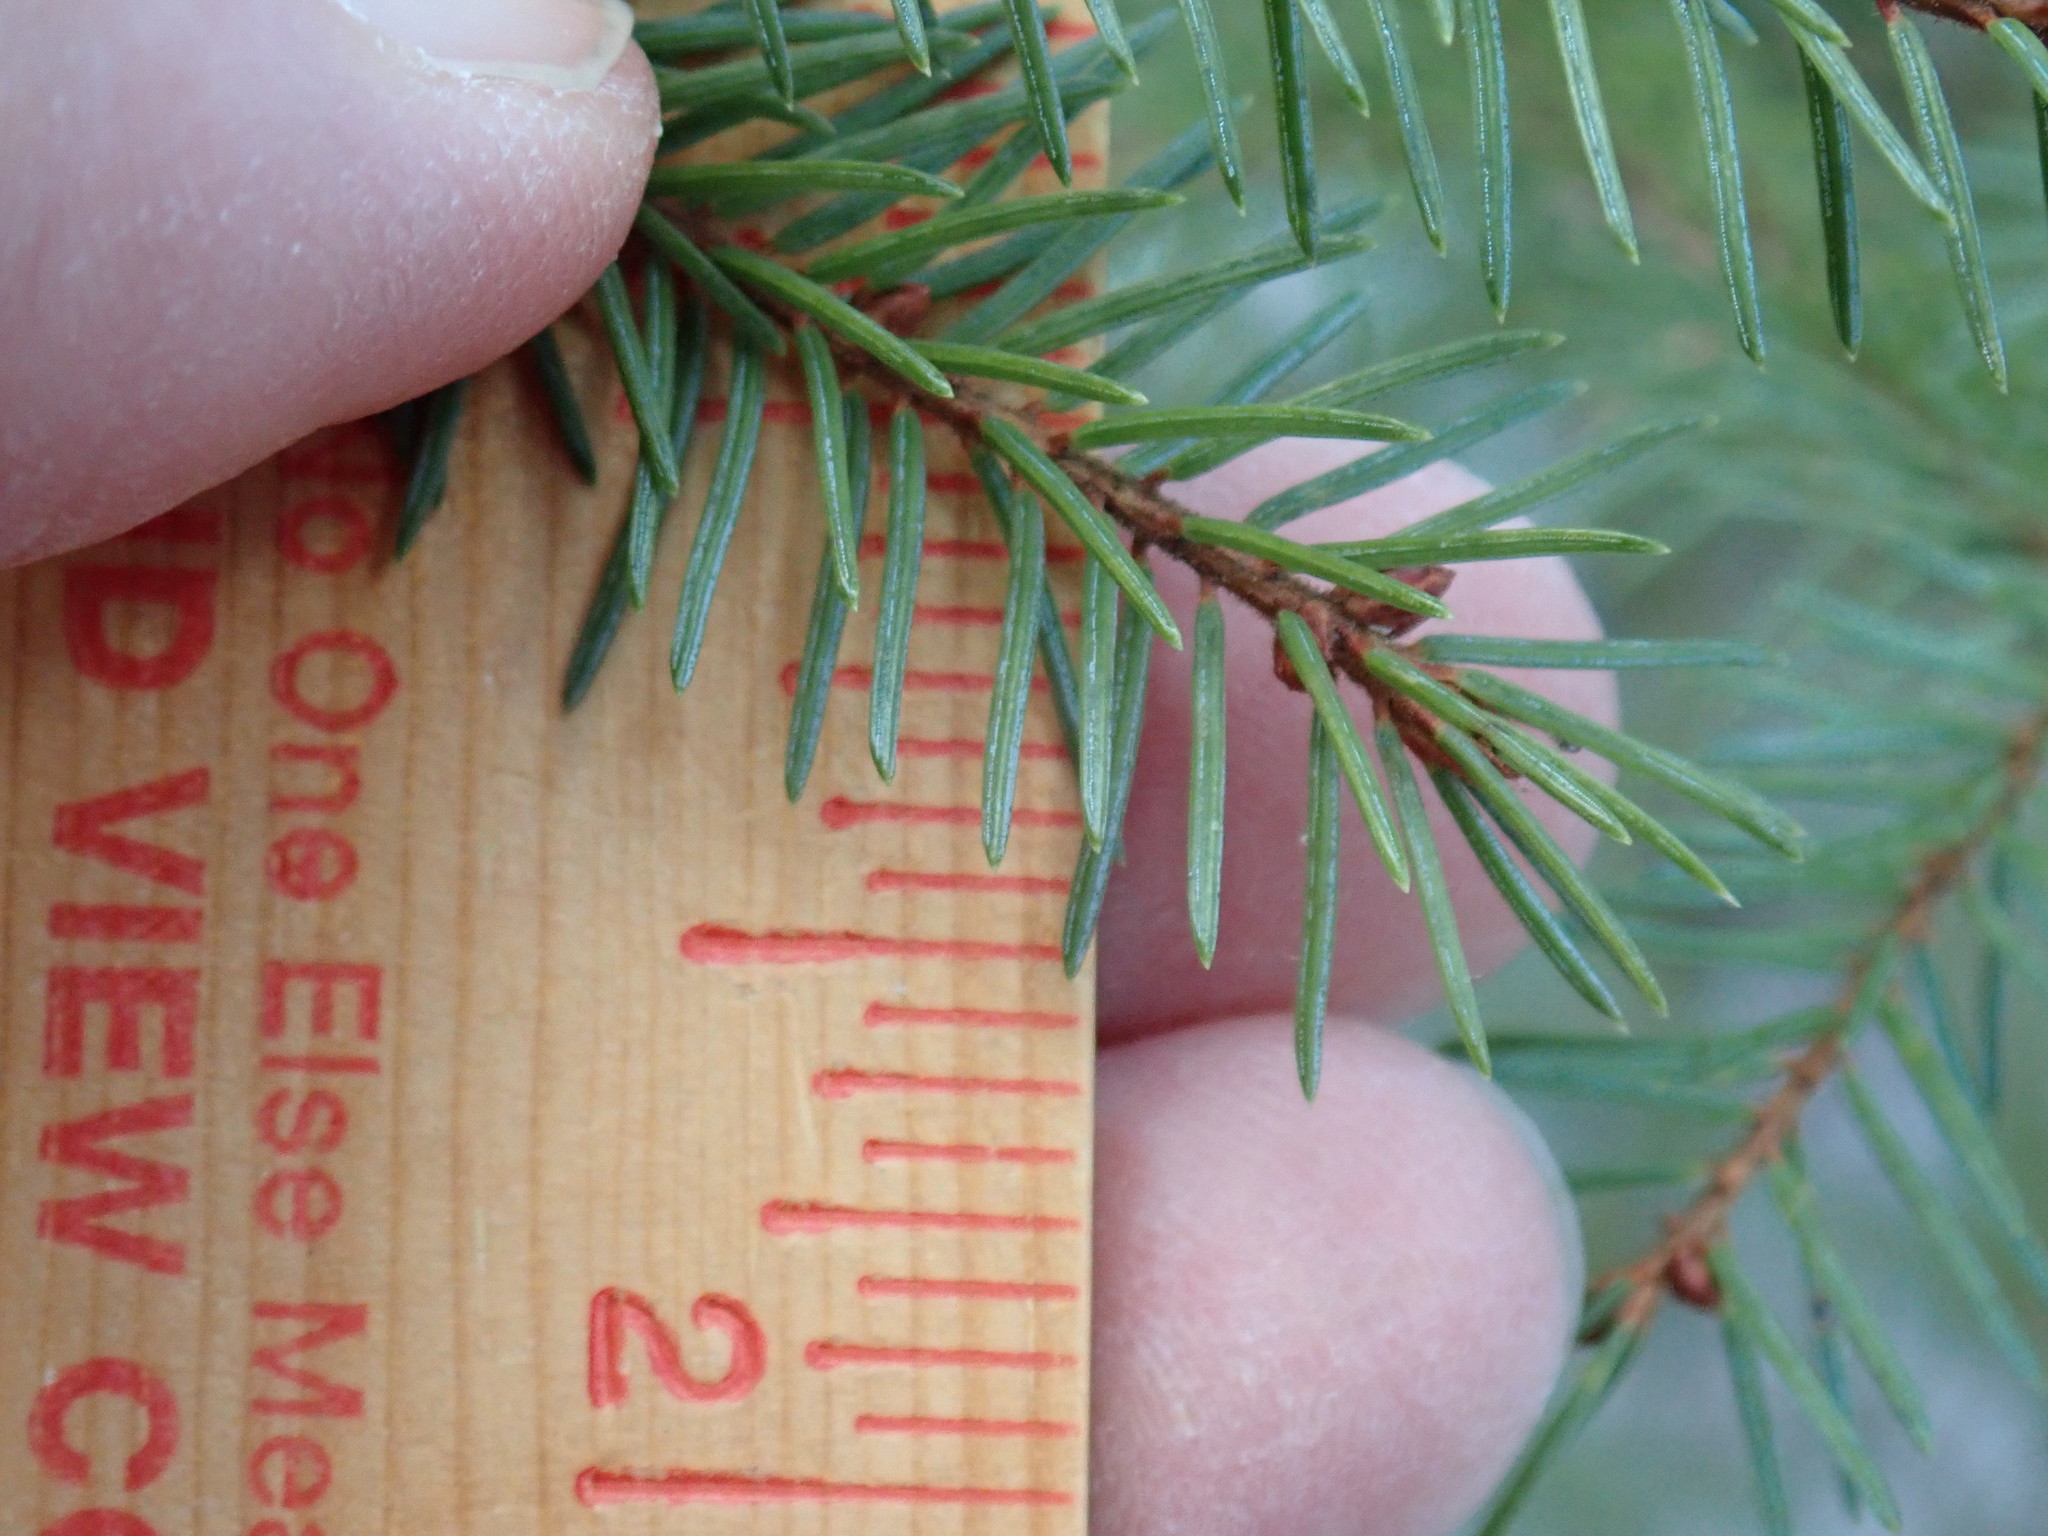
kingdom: Plantae
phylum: Tracheophyta
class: Pinopsida
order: Pinales
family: Pinaceae
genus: Picea
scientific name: Picea mariana
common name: Black spruce
